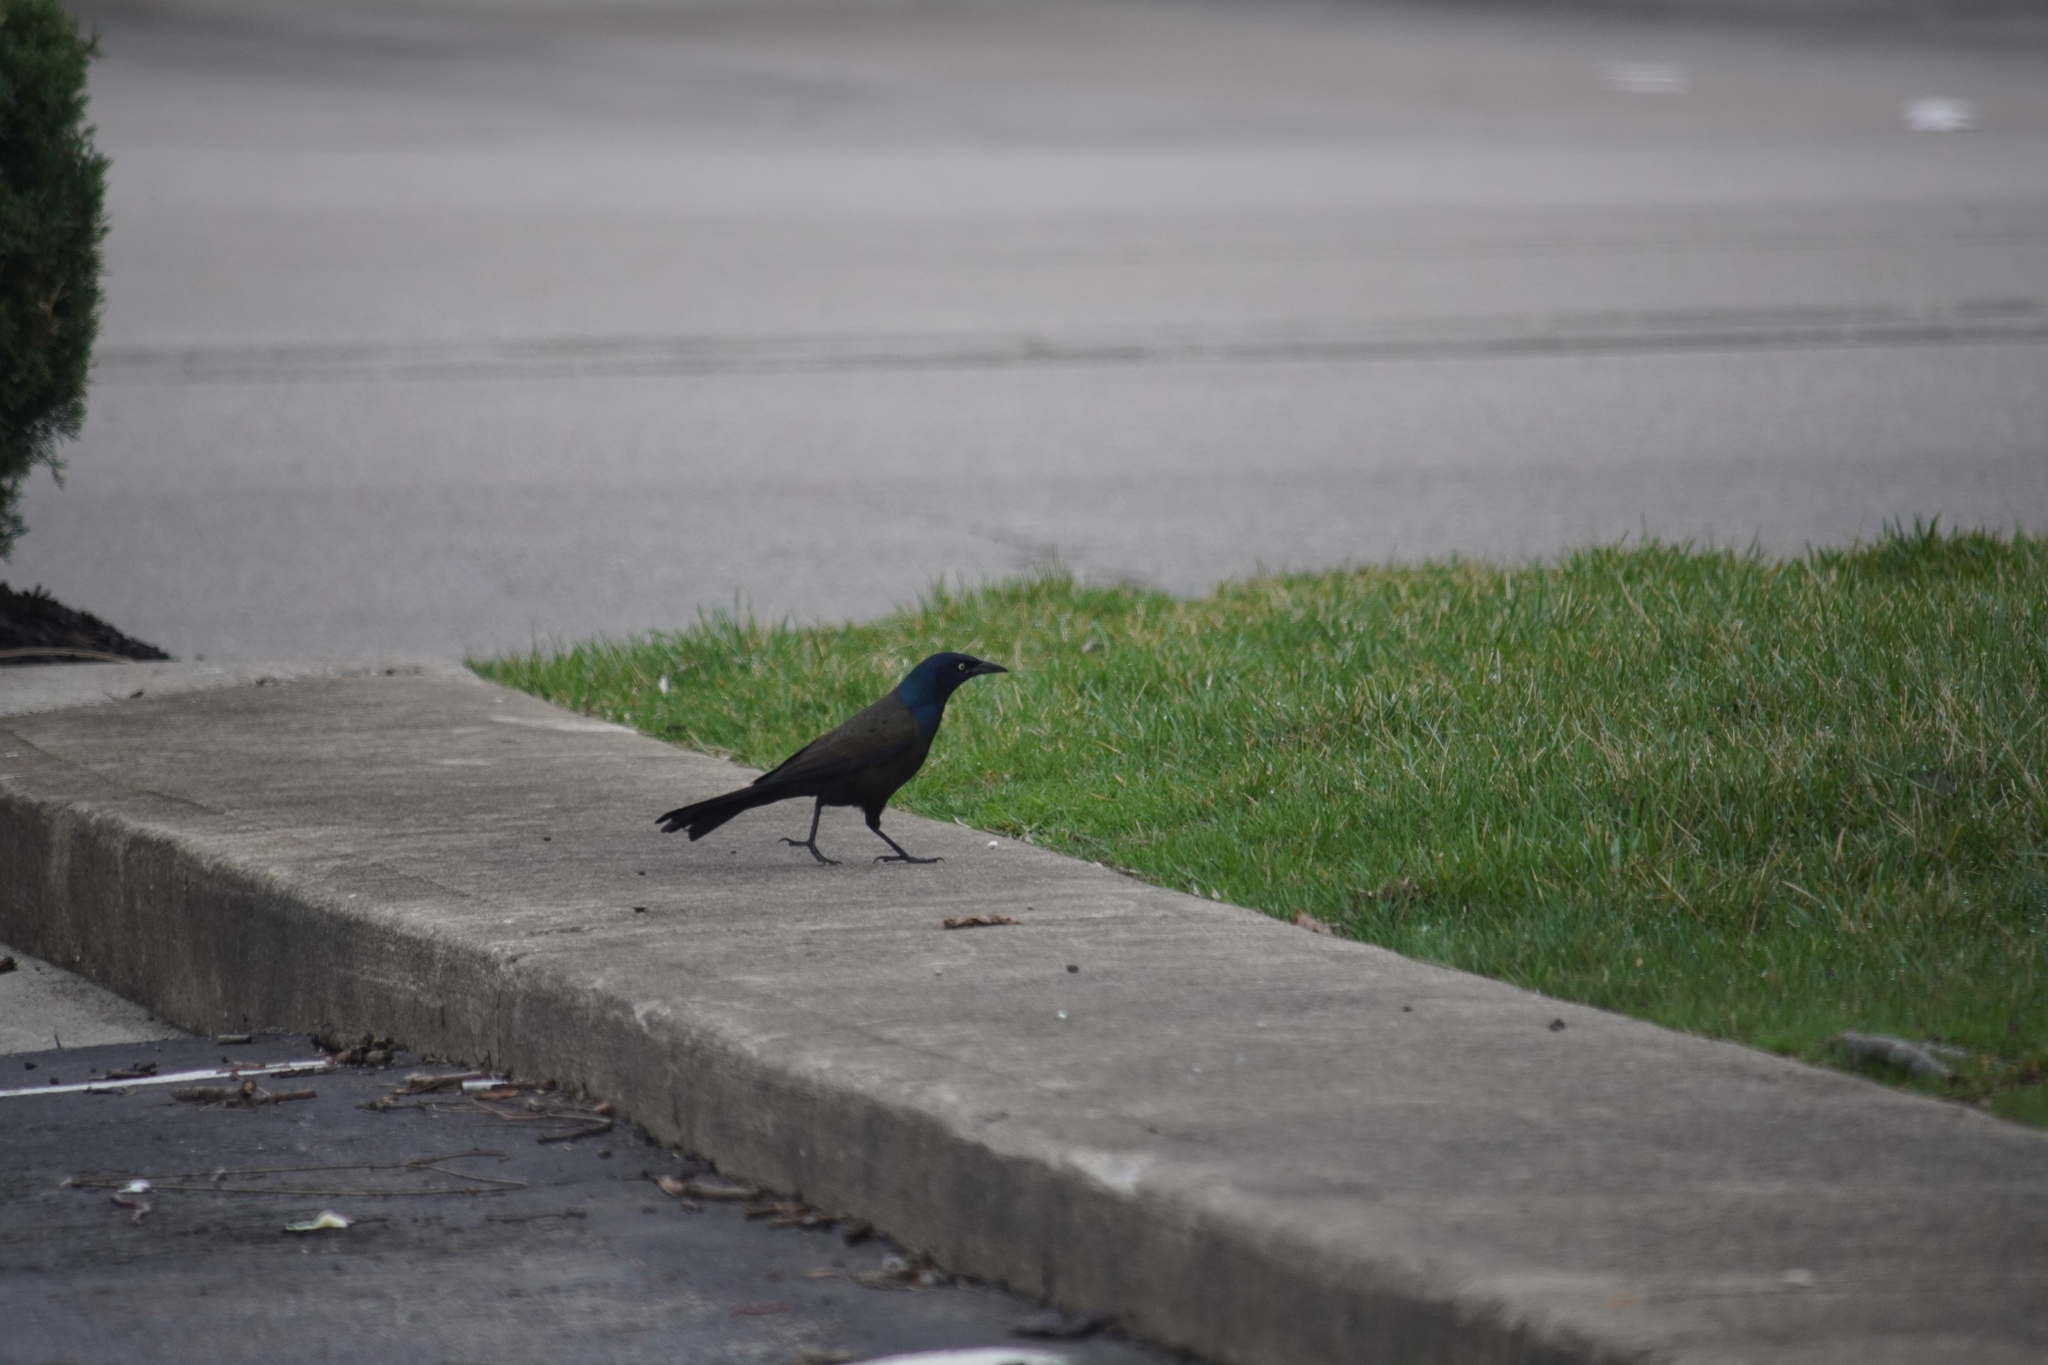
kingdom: Animalia
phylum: Chordata
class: Aves
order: Passeriformes
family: Icteridae
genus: Quiscalus
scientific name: Quiscalus quiscula
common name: Common grackle
